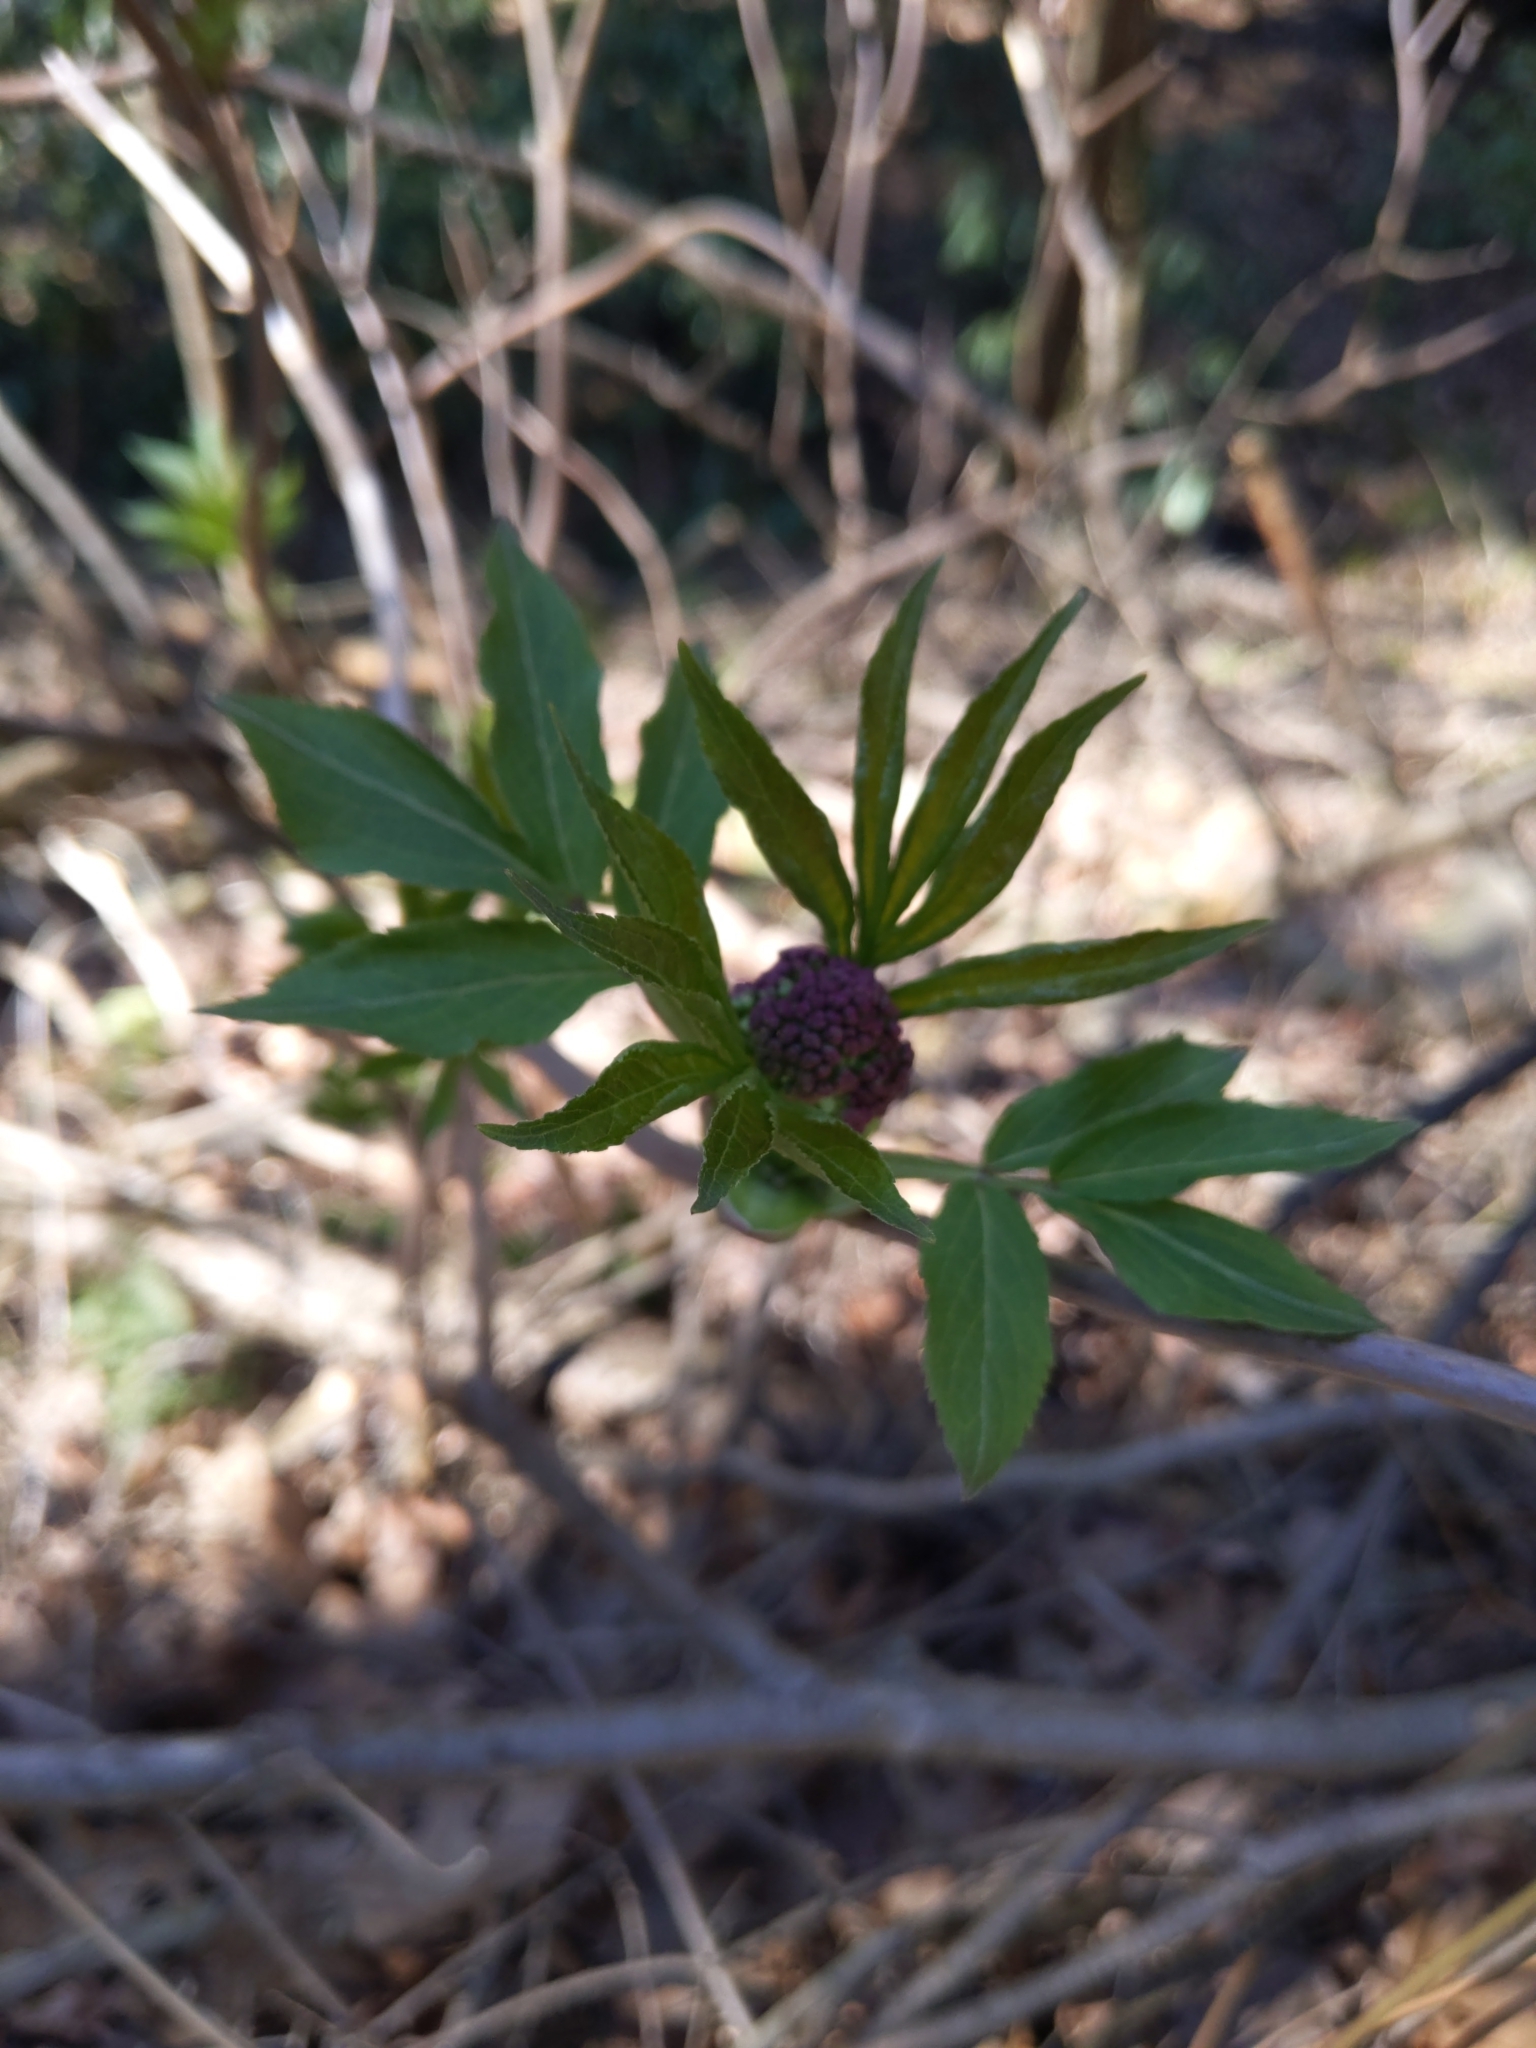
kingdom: Plantae
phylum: Tracheophyta
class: Magnoliopsida
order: Dipsacales
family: Viburnaceae
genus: Sambucus
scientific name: Sambucus racemosa
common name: Red-berried elder
